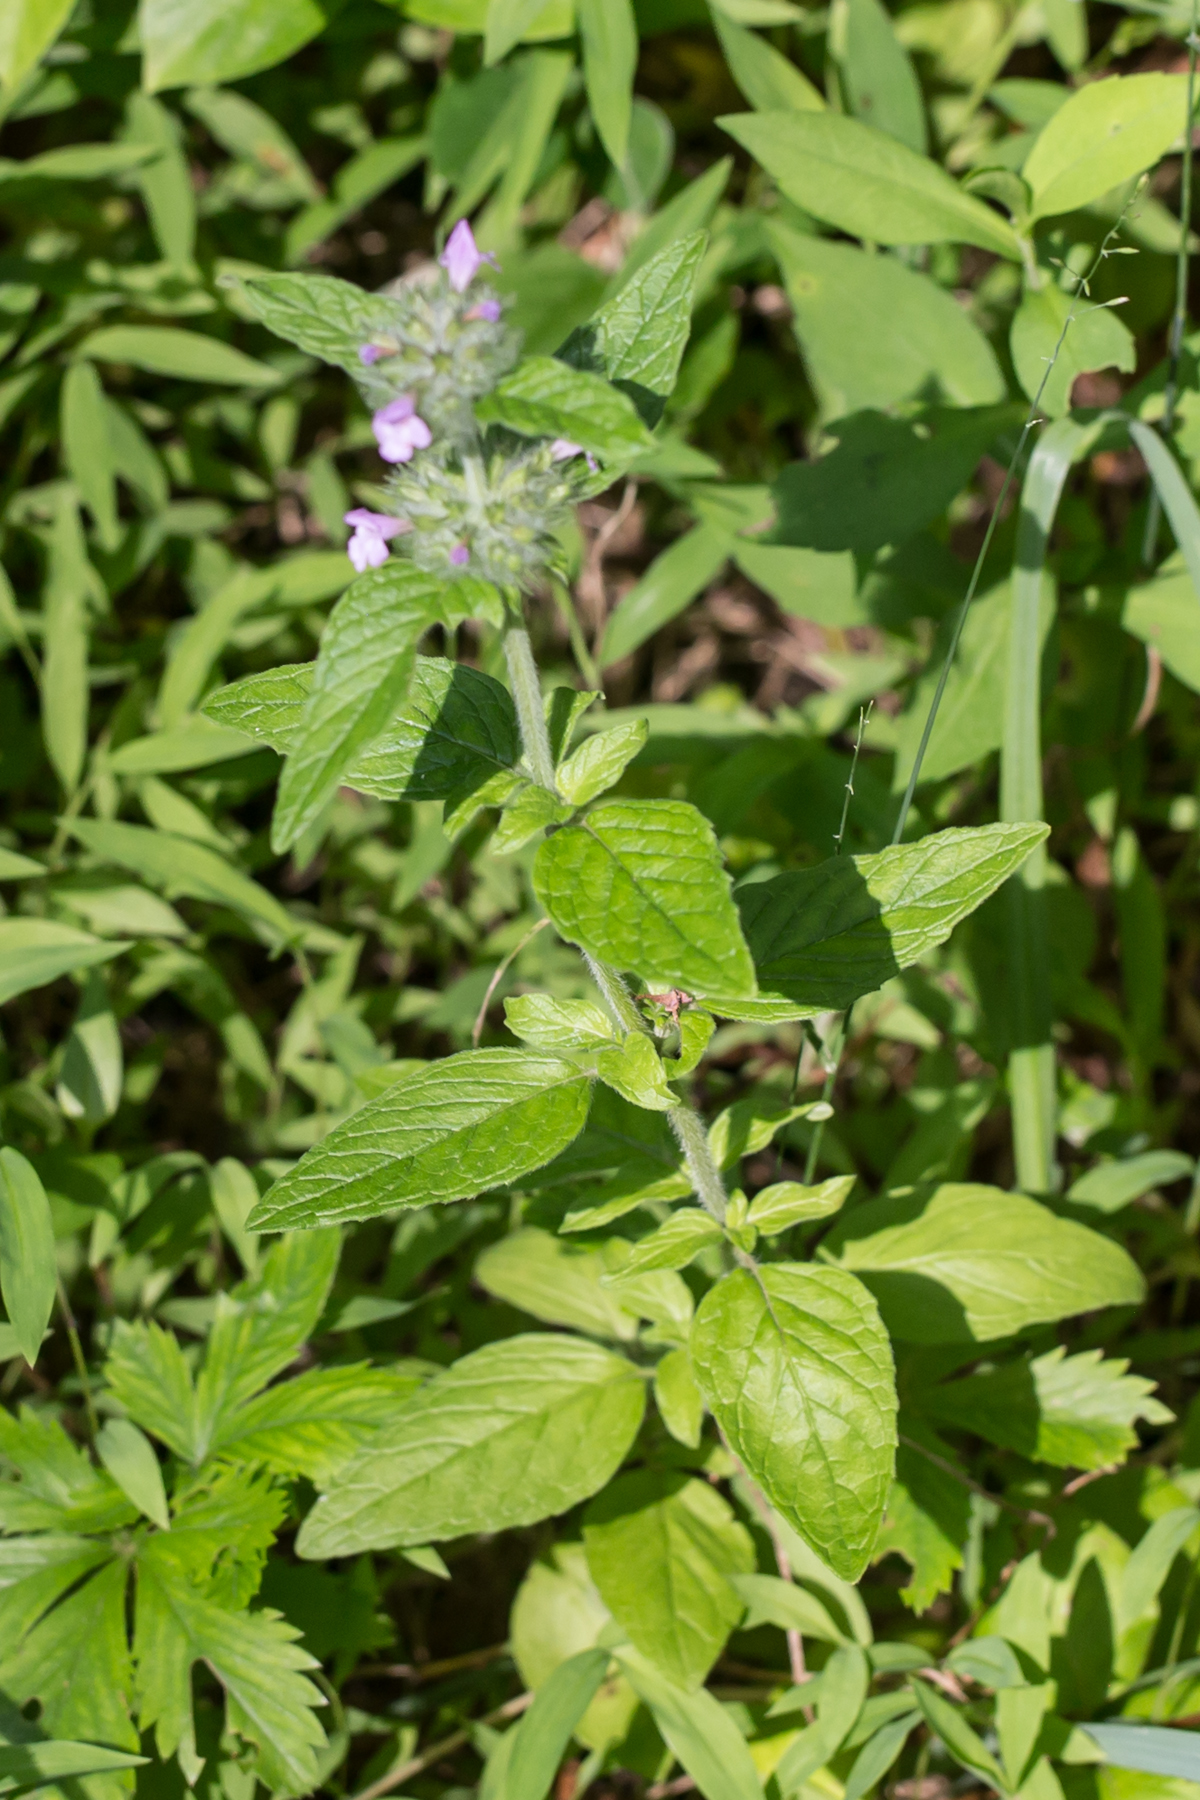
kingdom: Plantae
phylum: Tracheophyta
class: Magnoliopsida
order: Lamiales
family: Lamiaceae
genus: Clinopodium
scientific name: Clinopodium vulgare
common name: Wild basil
